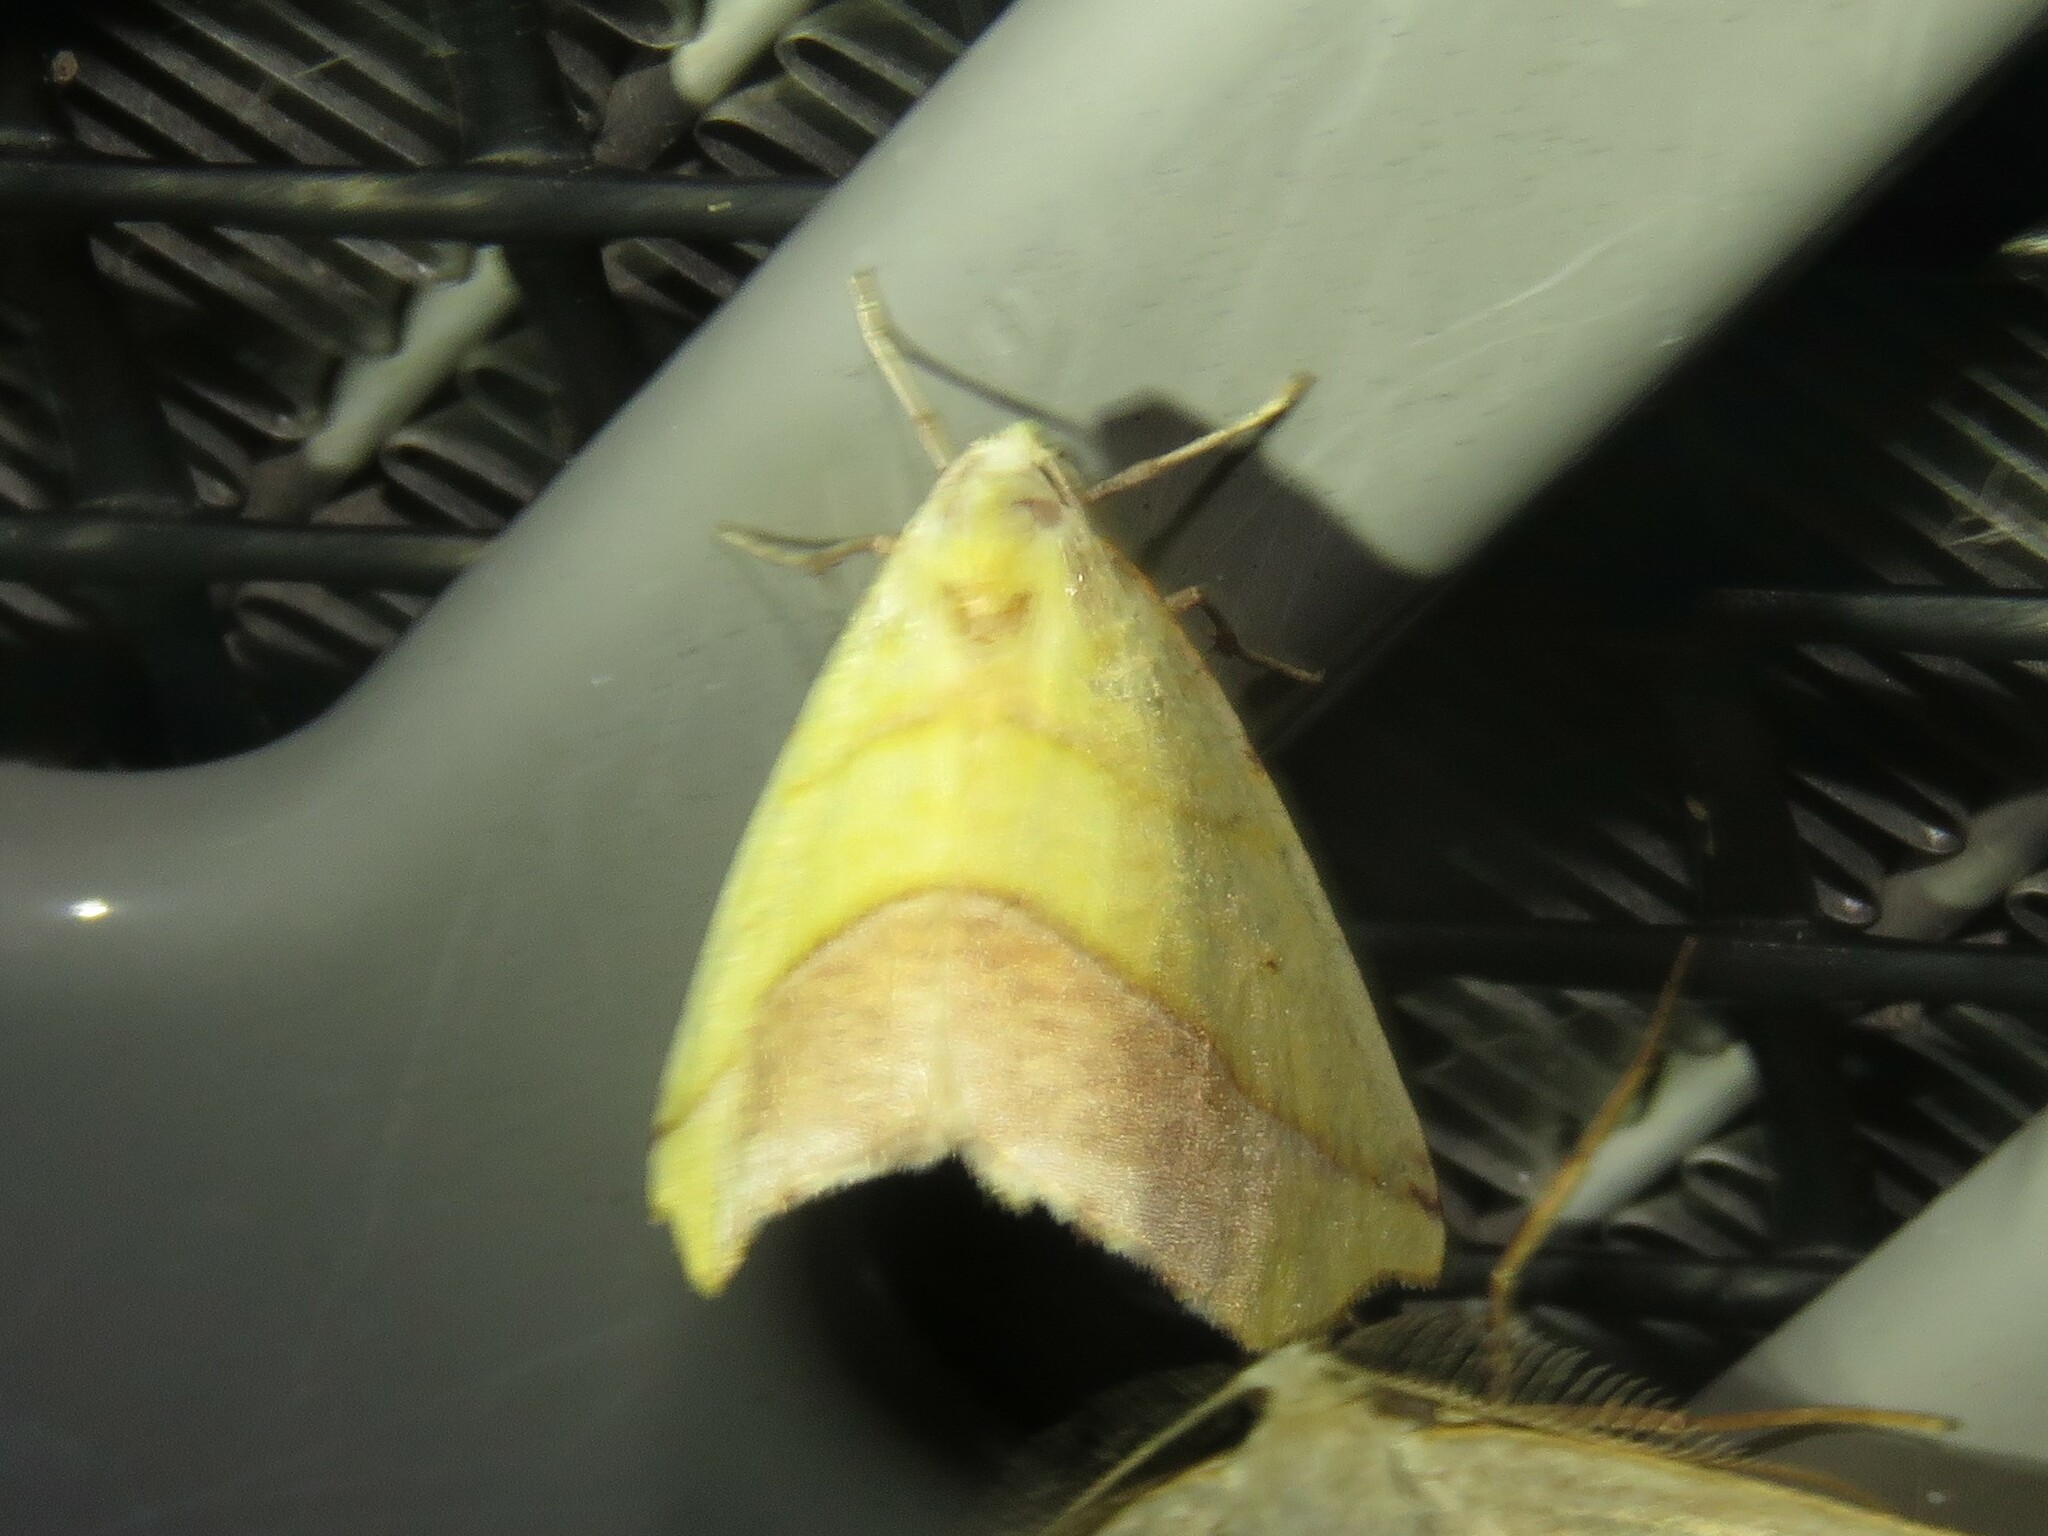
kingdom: Animalia
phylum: Arthropoda
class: Insecta
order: Lepidoptera
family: Geometridae
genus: Sicya
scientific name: Sicya macularia
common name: Sharp-lined yellow
